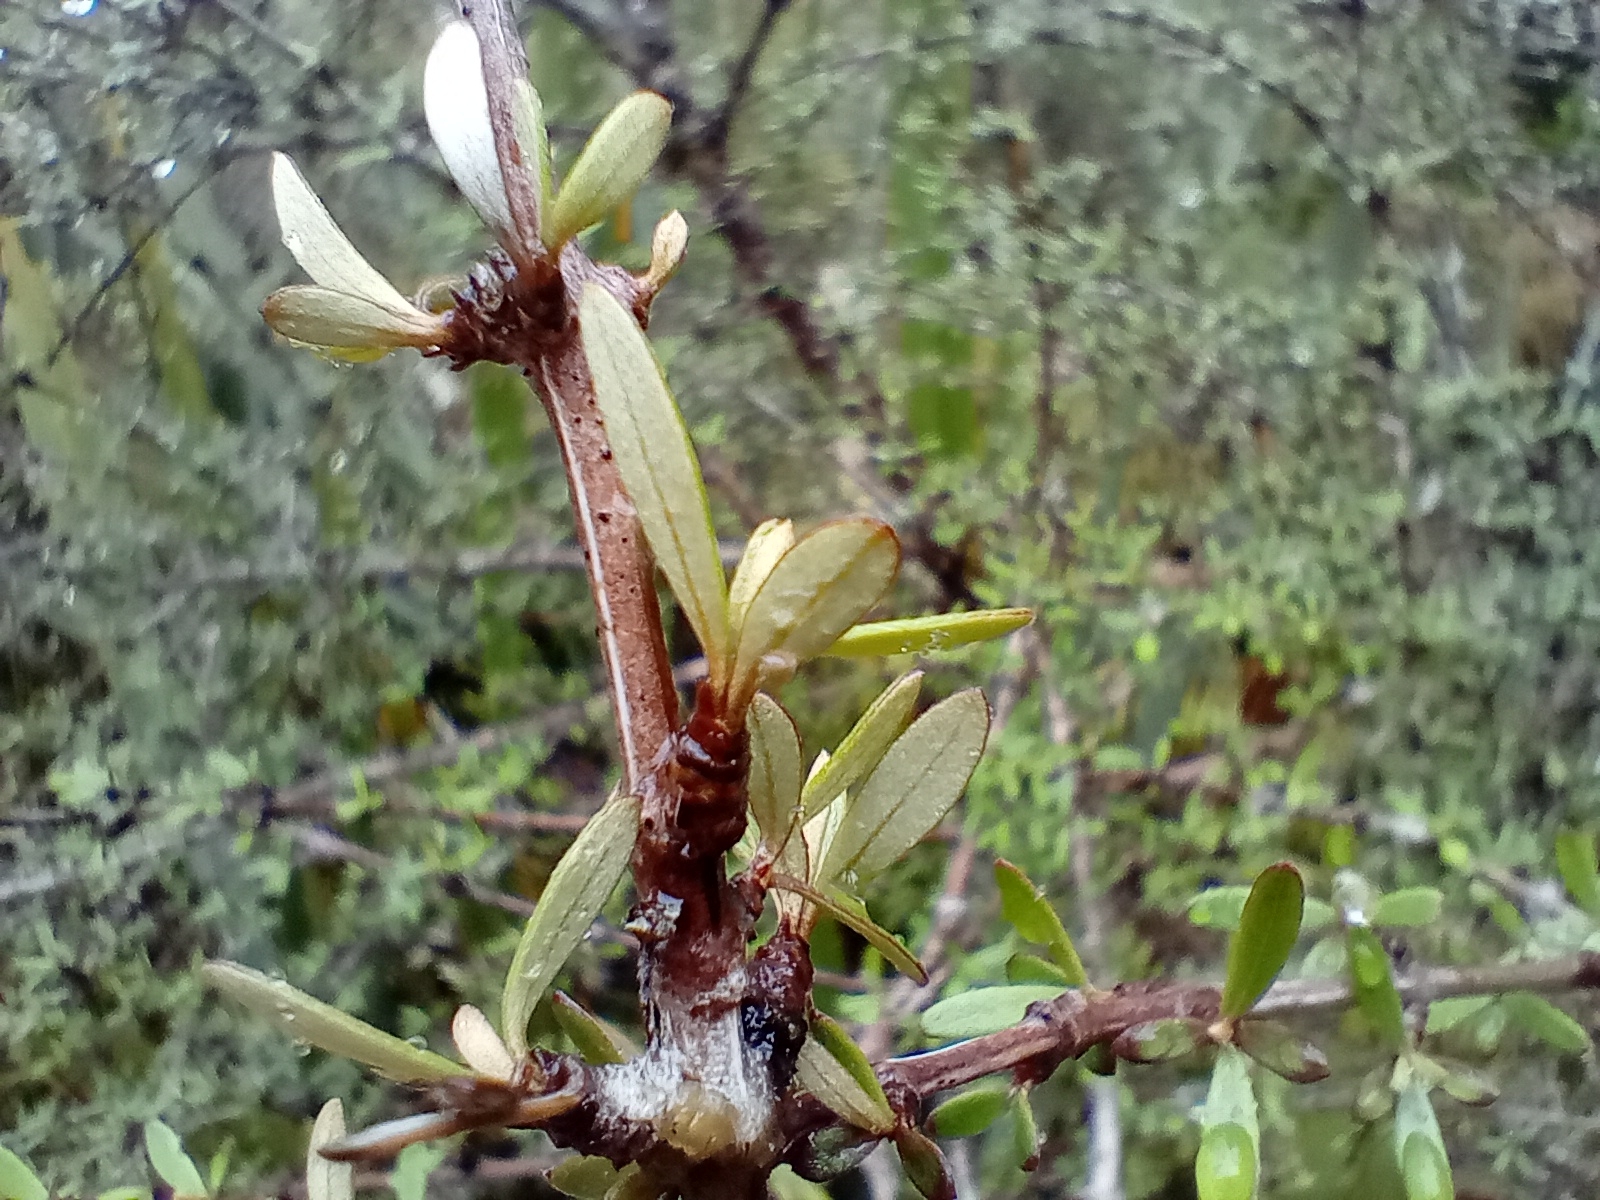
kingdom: Plantae
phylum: Tracheophyta
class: Magnoliopsida
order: Asterales
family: Asteraceae
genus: Olearia
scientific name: Olearia virgata
